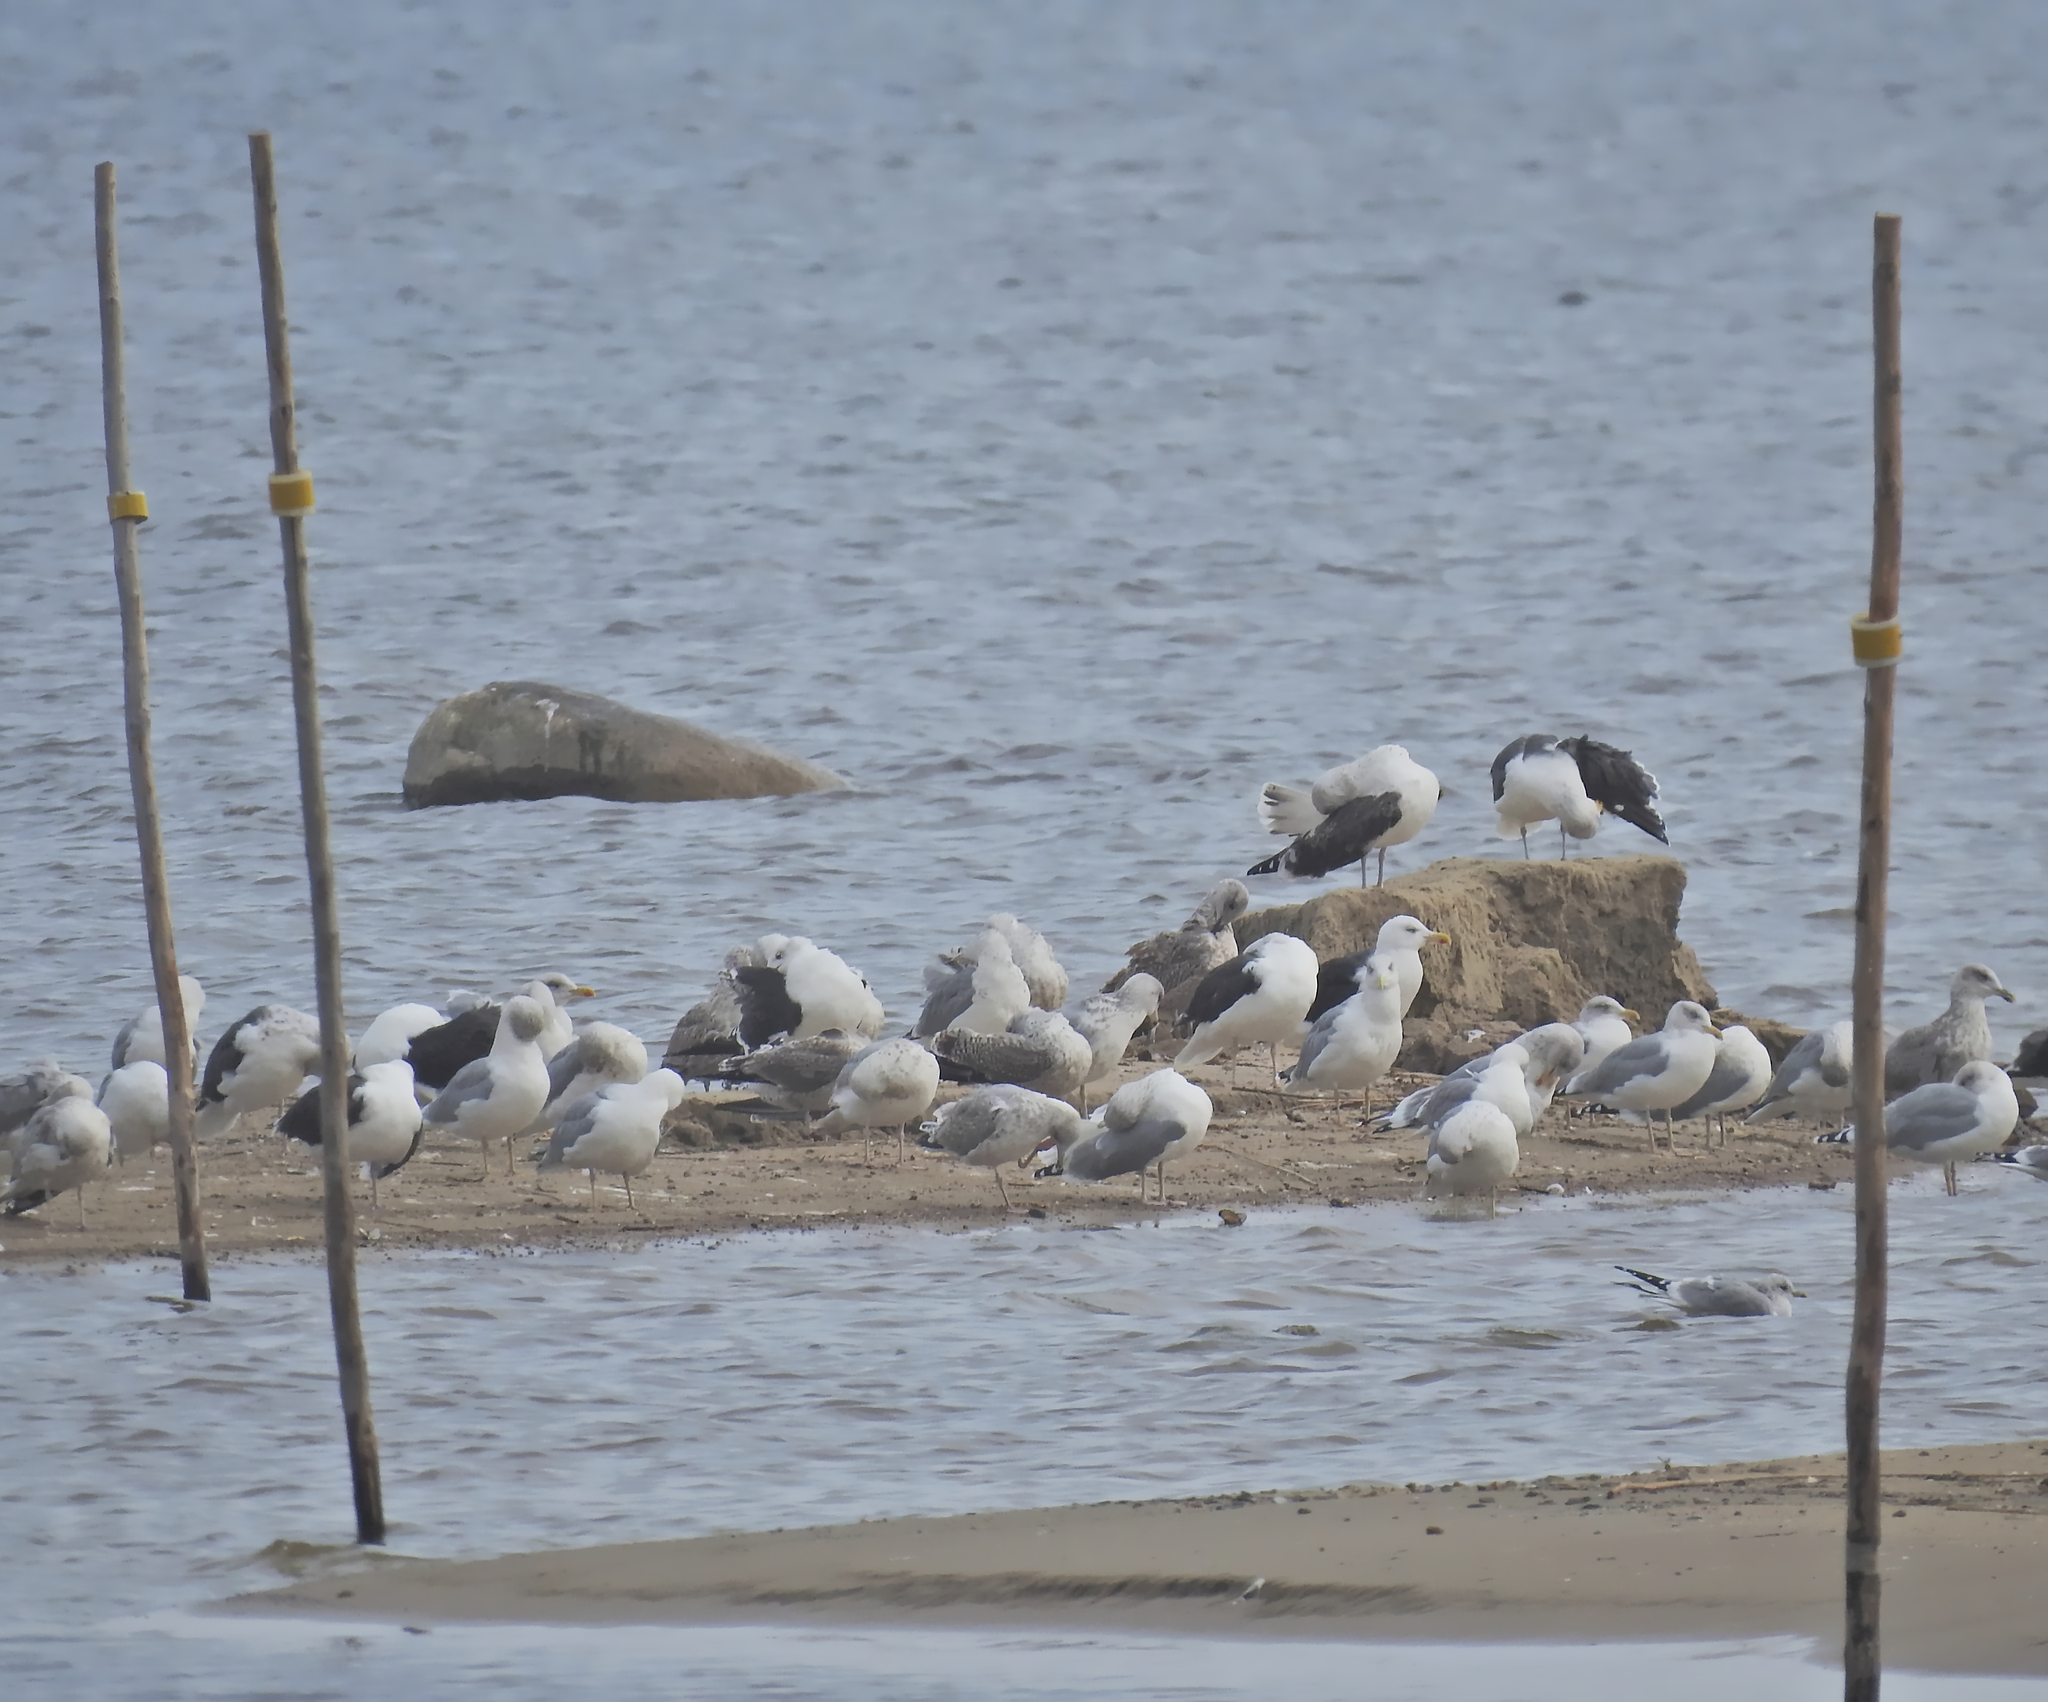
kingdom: Animalia
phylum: Chordata
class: Aves
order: Charadriiformes
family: Laridae
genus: Larus
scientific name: Larus argentatus
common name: Herring gull
